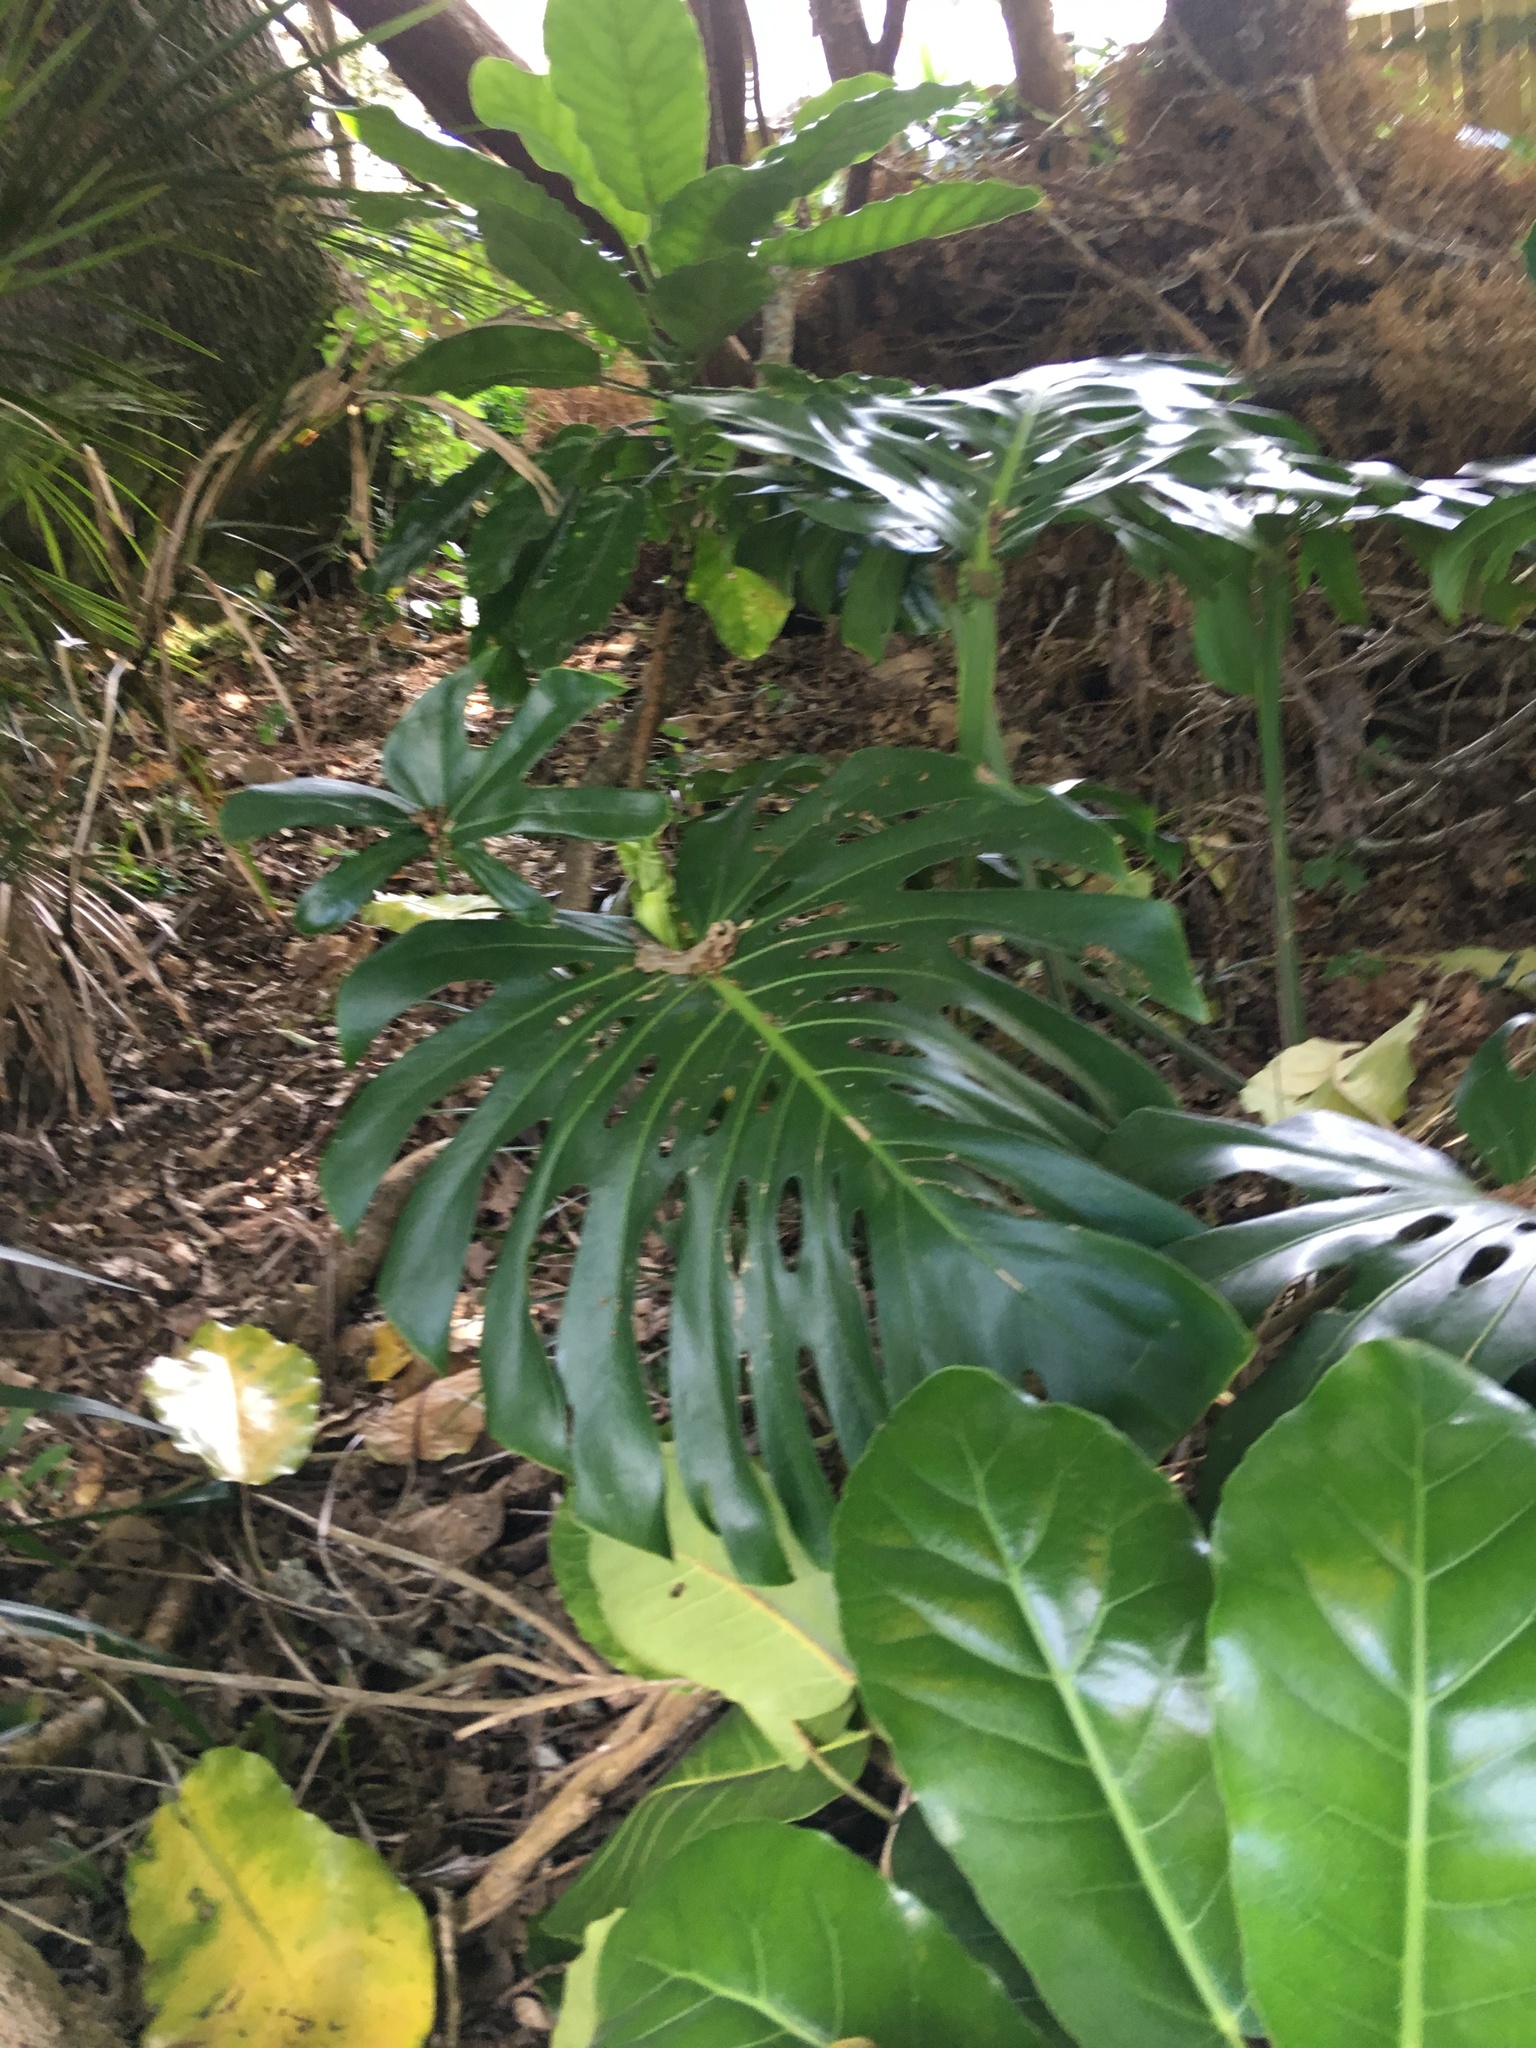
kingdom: Plantae
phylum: Tracheophyta
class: Liliopsida
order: Alismatales
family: Araceae
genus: Monstera
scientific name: Monstera deliciosa
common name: Cut-leaf-philodendron
